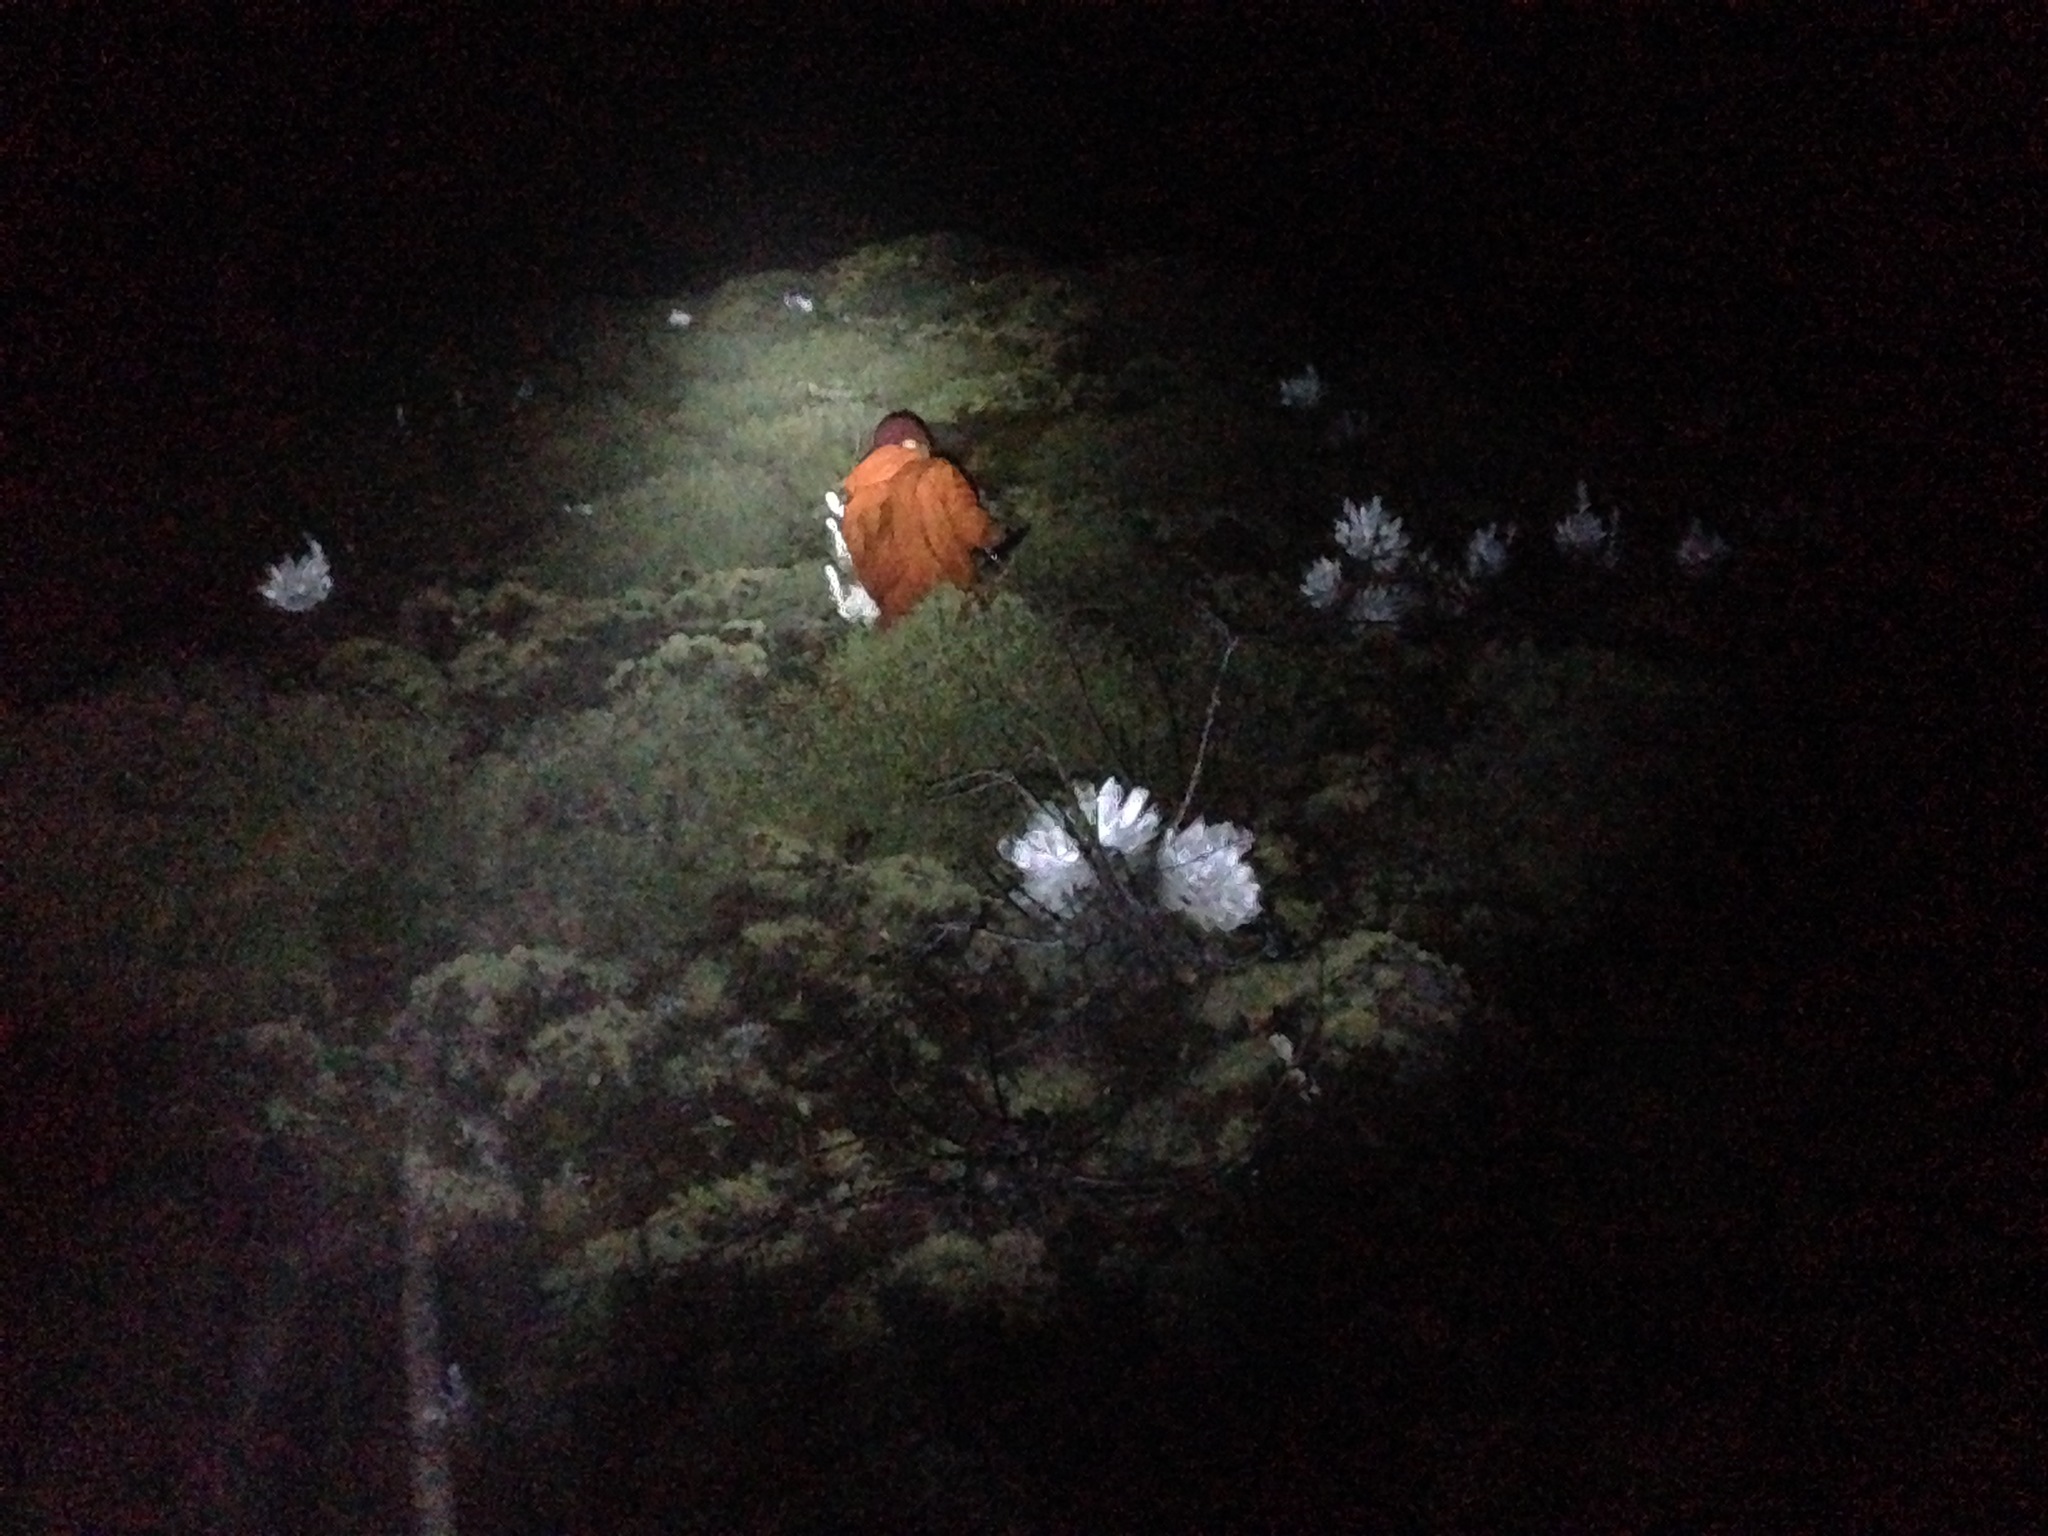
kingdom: Plantae
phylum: Tracheophyta
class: Magnoliopsida
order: Saxifragales
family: Crassulaceae
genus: Dudleya
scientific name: Dudleya anthonyi
